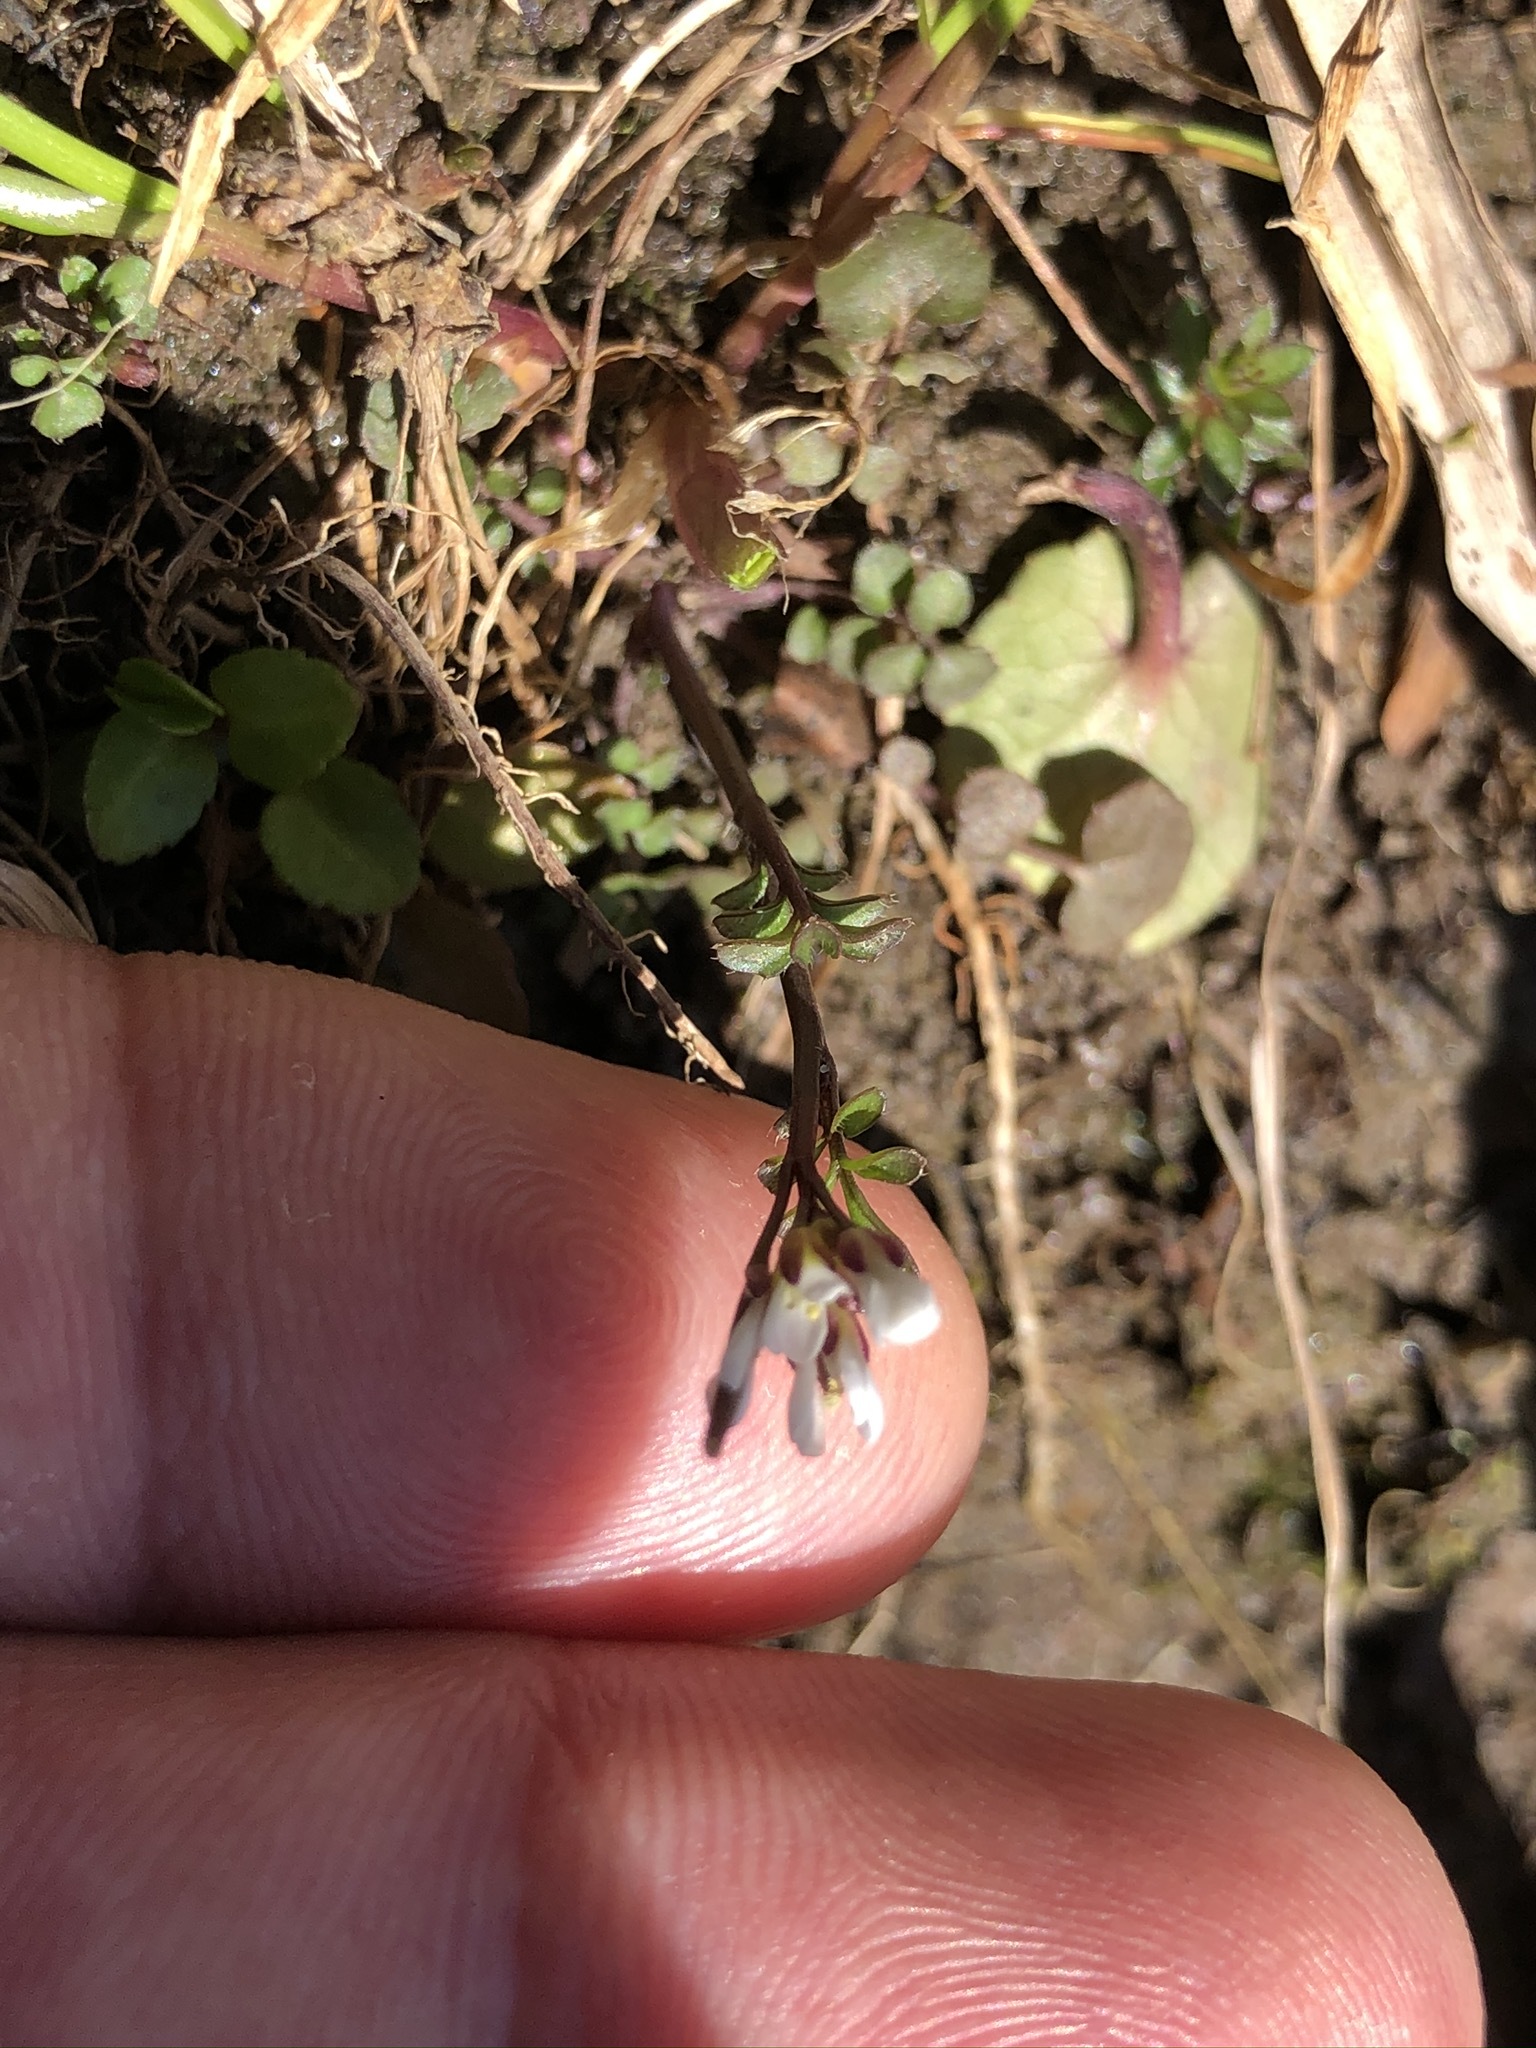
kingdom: Plantae
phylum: Tracheophyta
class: Magnoliopsida
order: Brassicales
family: Brassicaceae
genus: Cardamine
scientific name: Cardamine hirsuta
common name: Hairy bittercress
